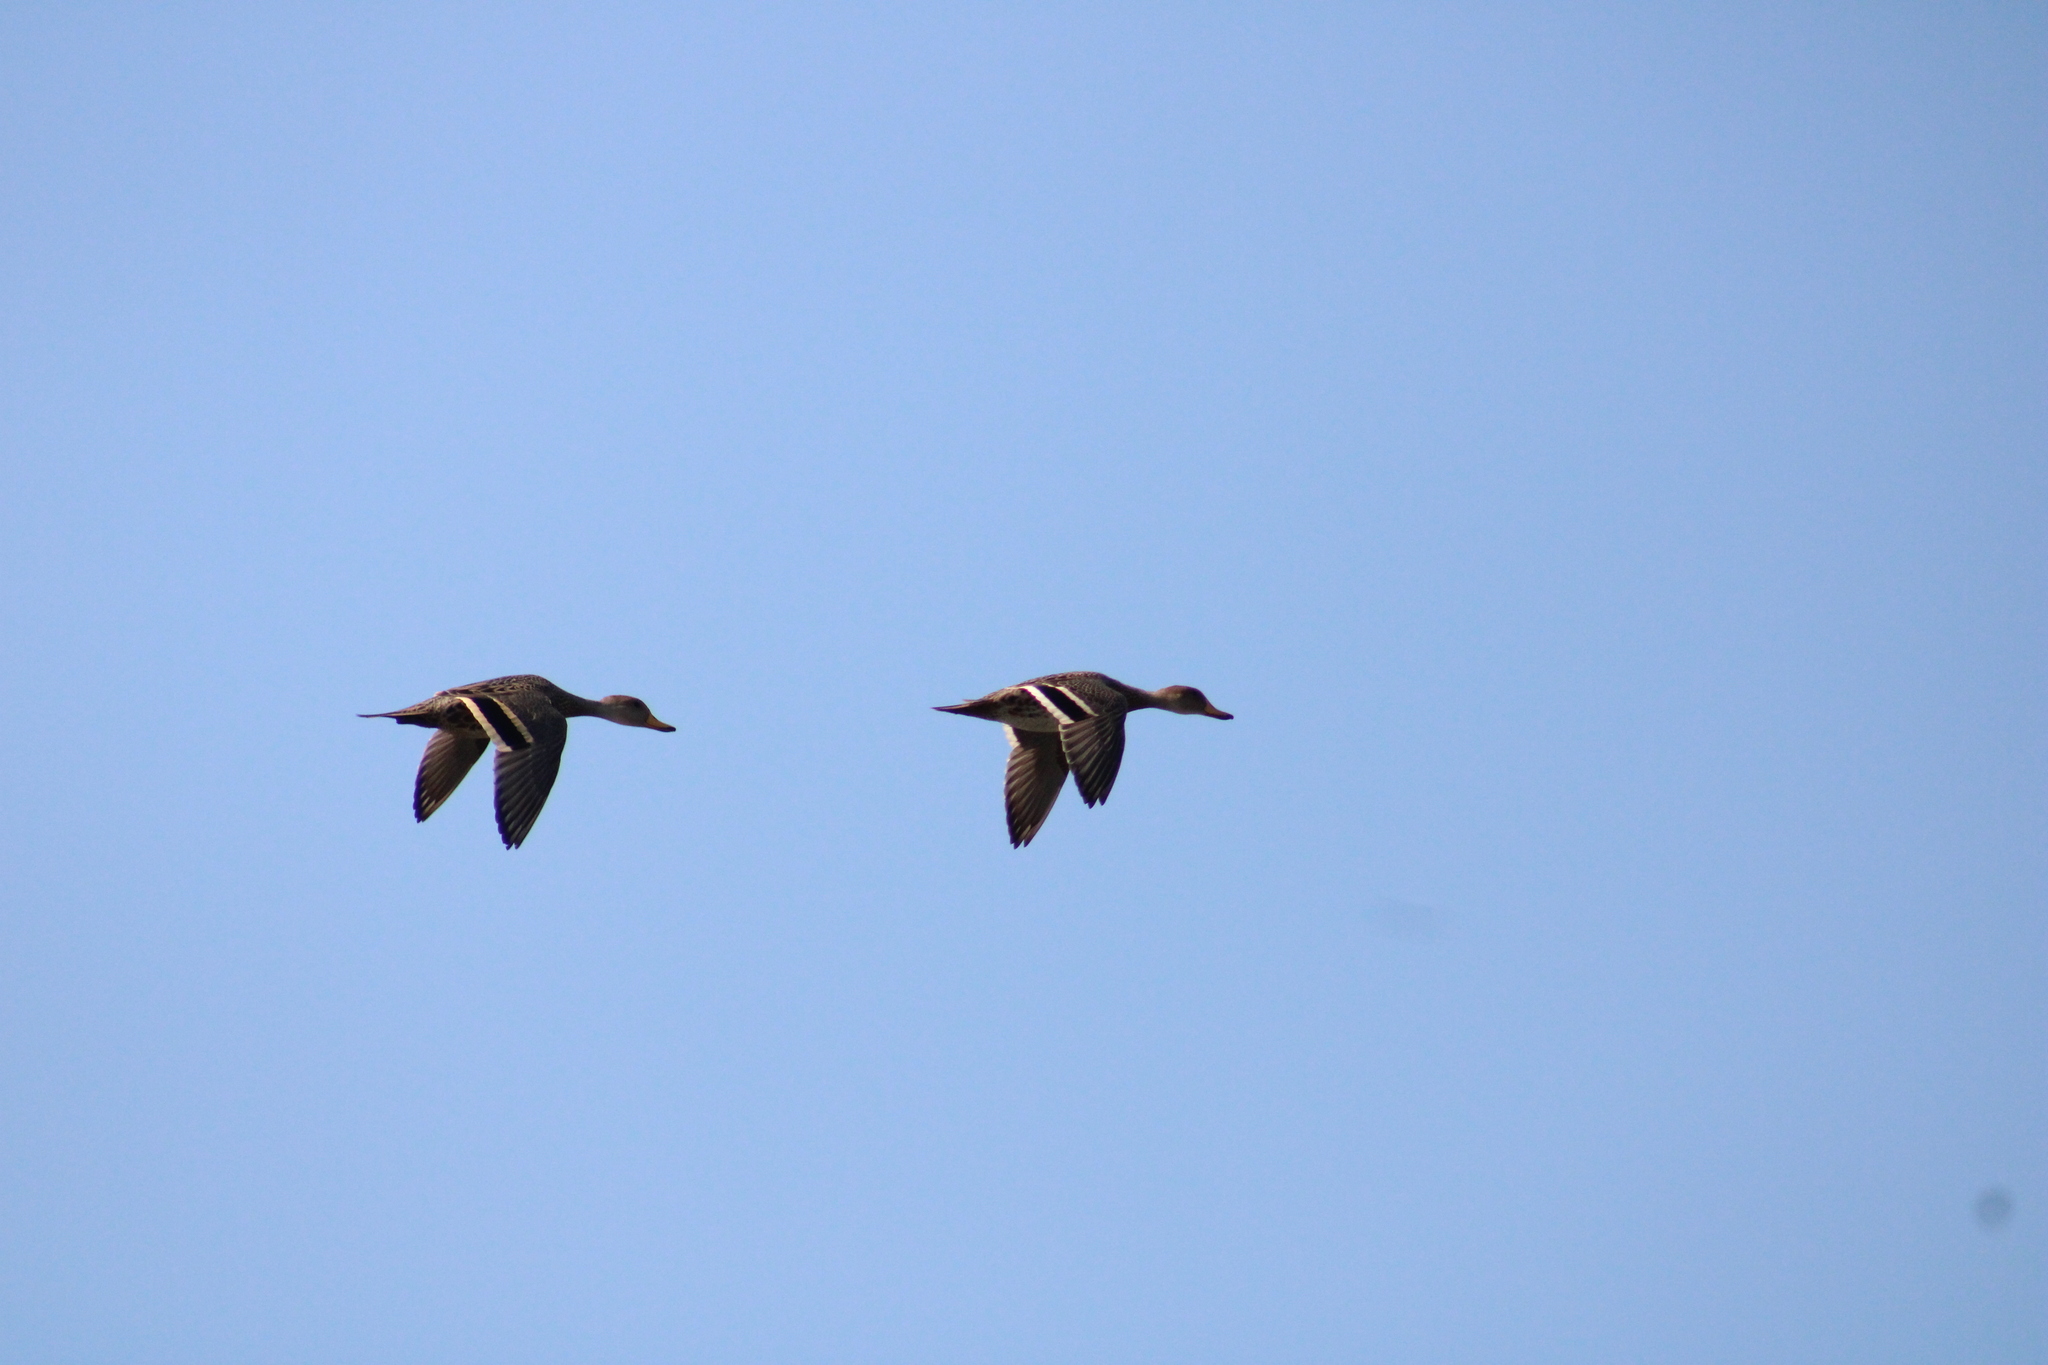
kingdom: Animalia
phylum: Chordata
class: Aves
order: Anseriformes
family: Anatidae
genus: Anas
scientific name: Anas georgica
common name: Yellow-billed pintail
